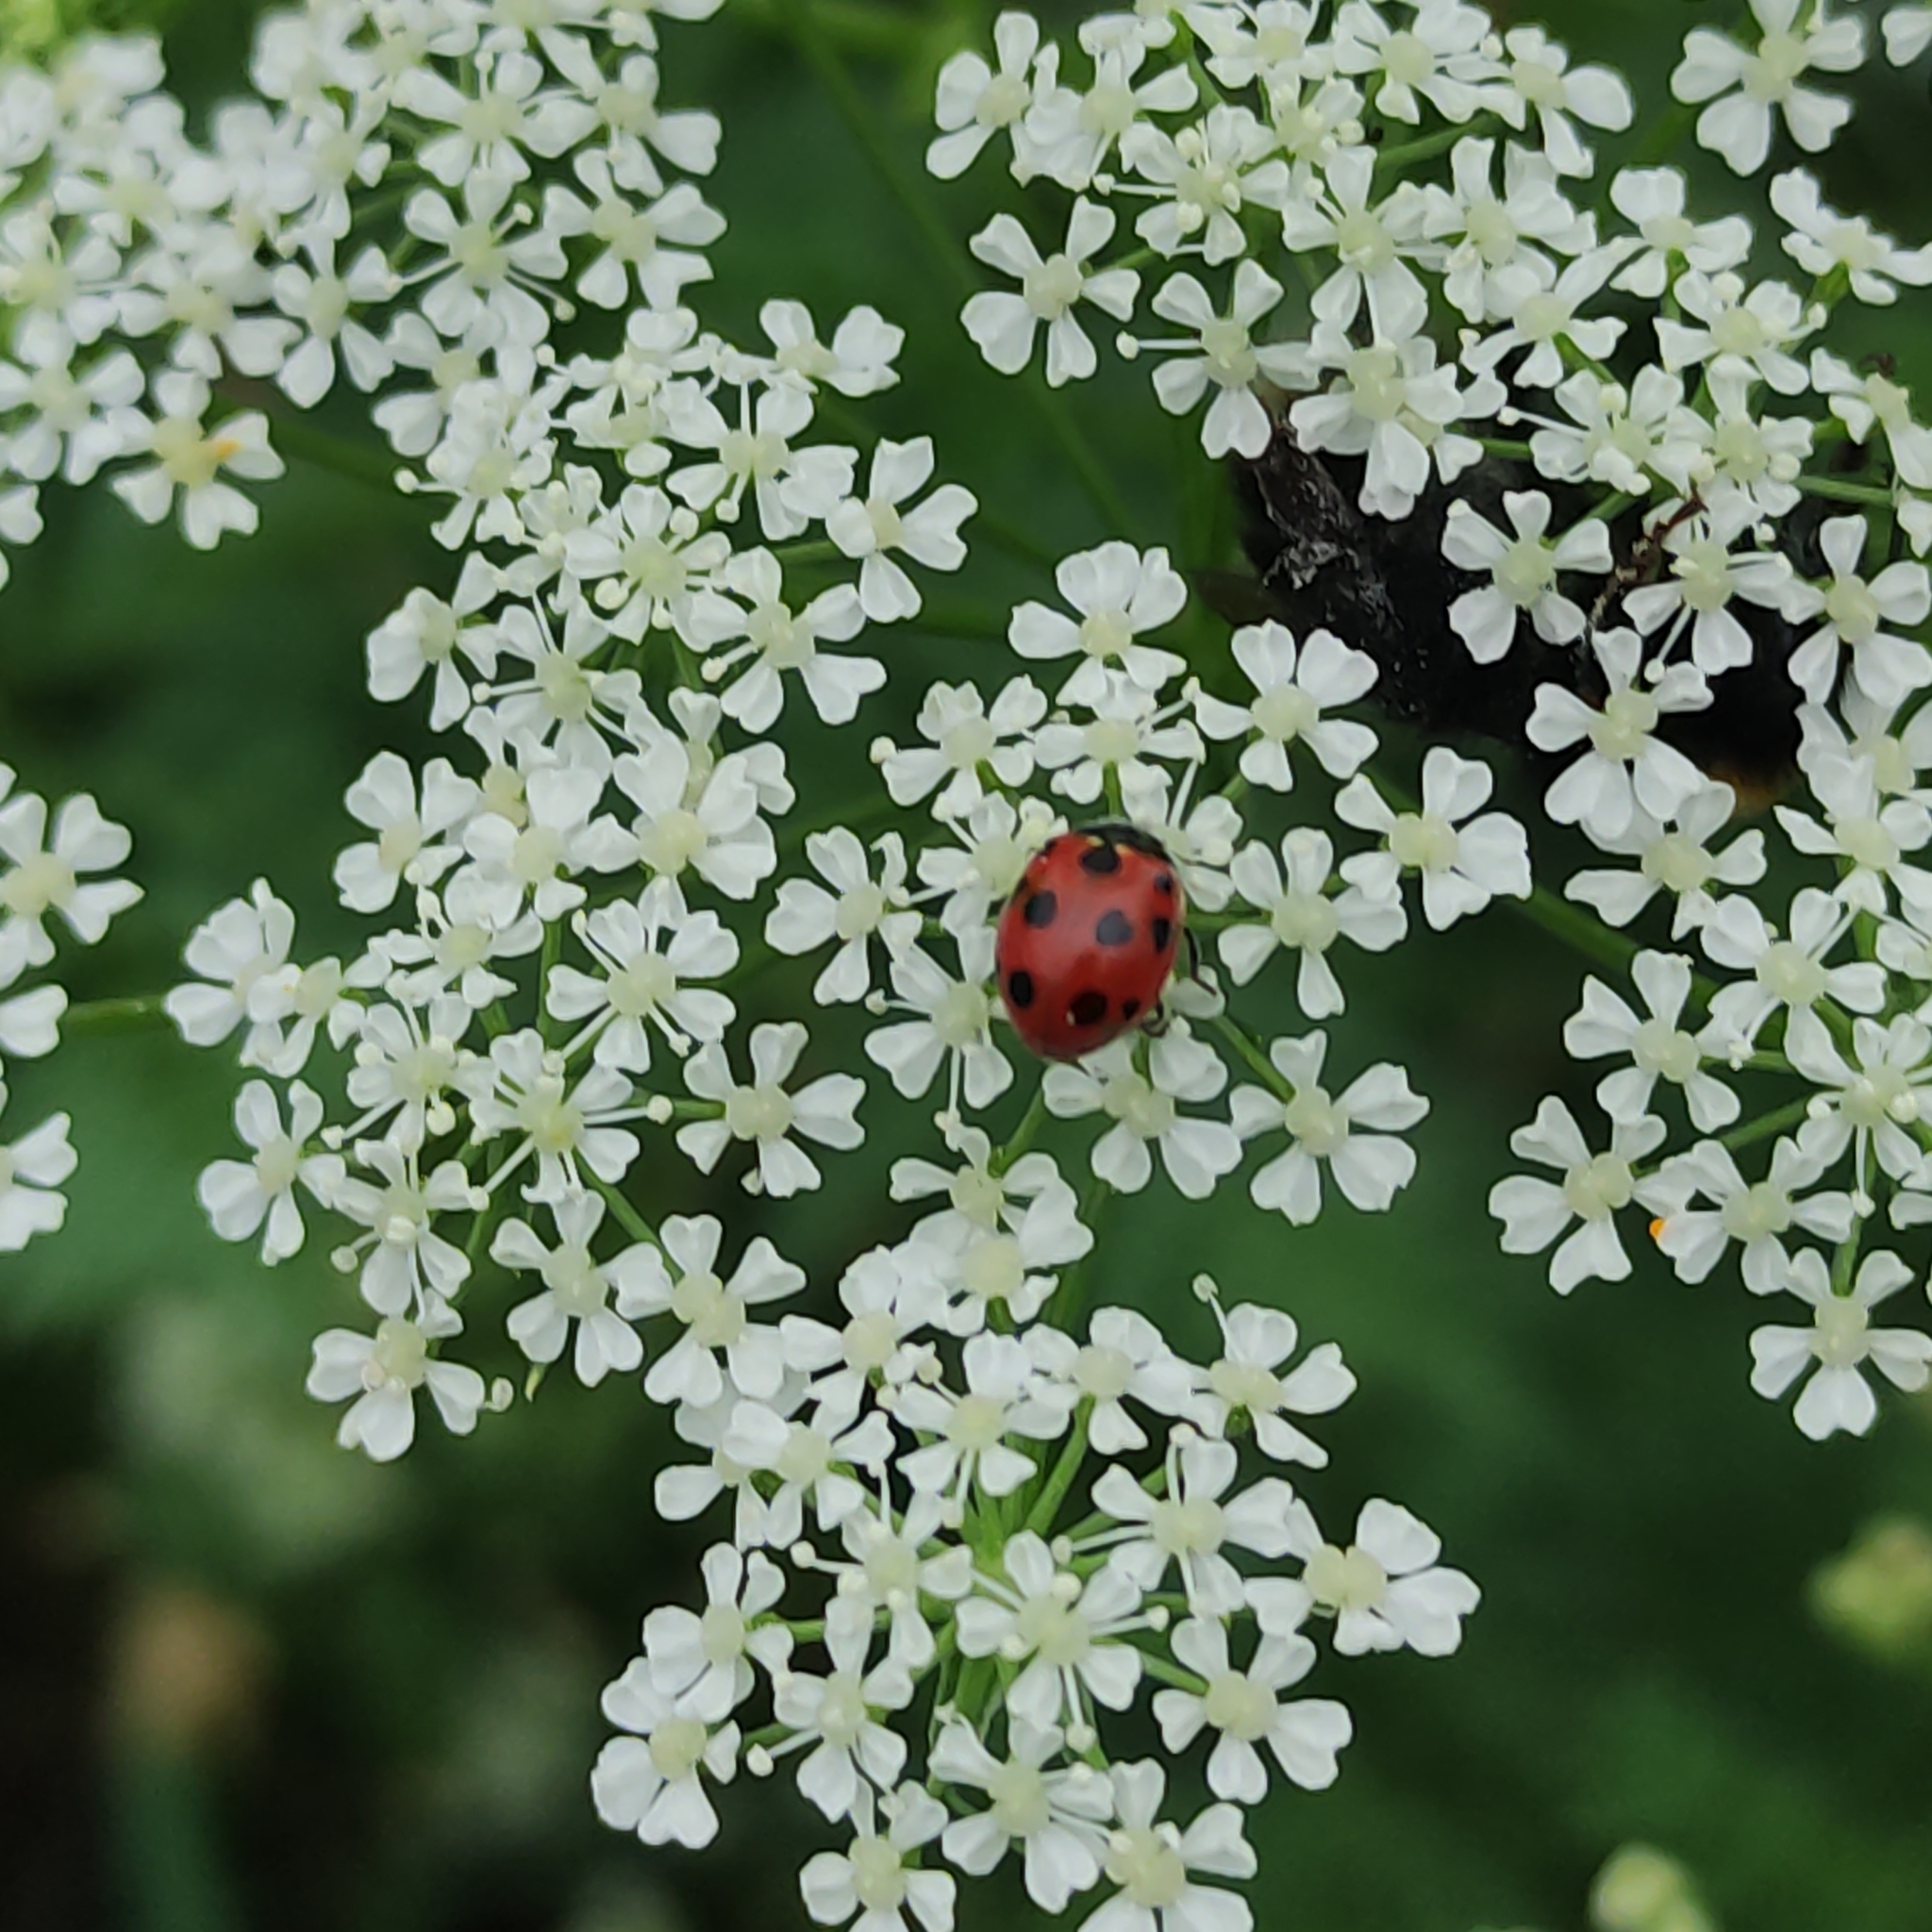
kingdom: Animalia
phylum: Arthropoda
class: Insecta
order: Coleoptera
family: Coccinellidae
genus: Coccinella
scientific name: Coccinella undecimpunctata
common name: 11-spot ladybird
